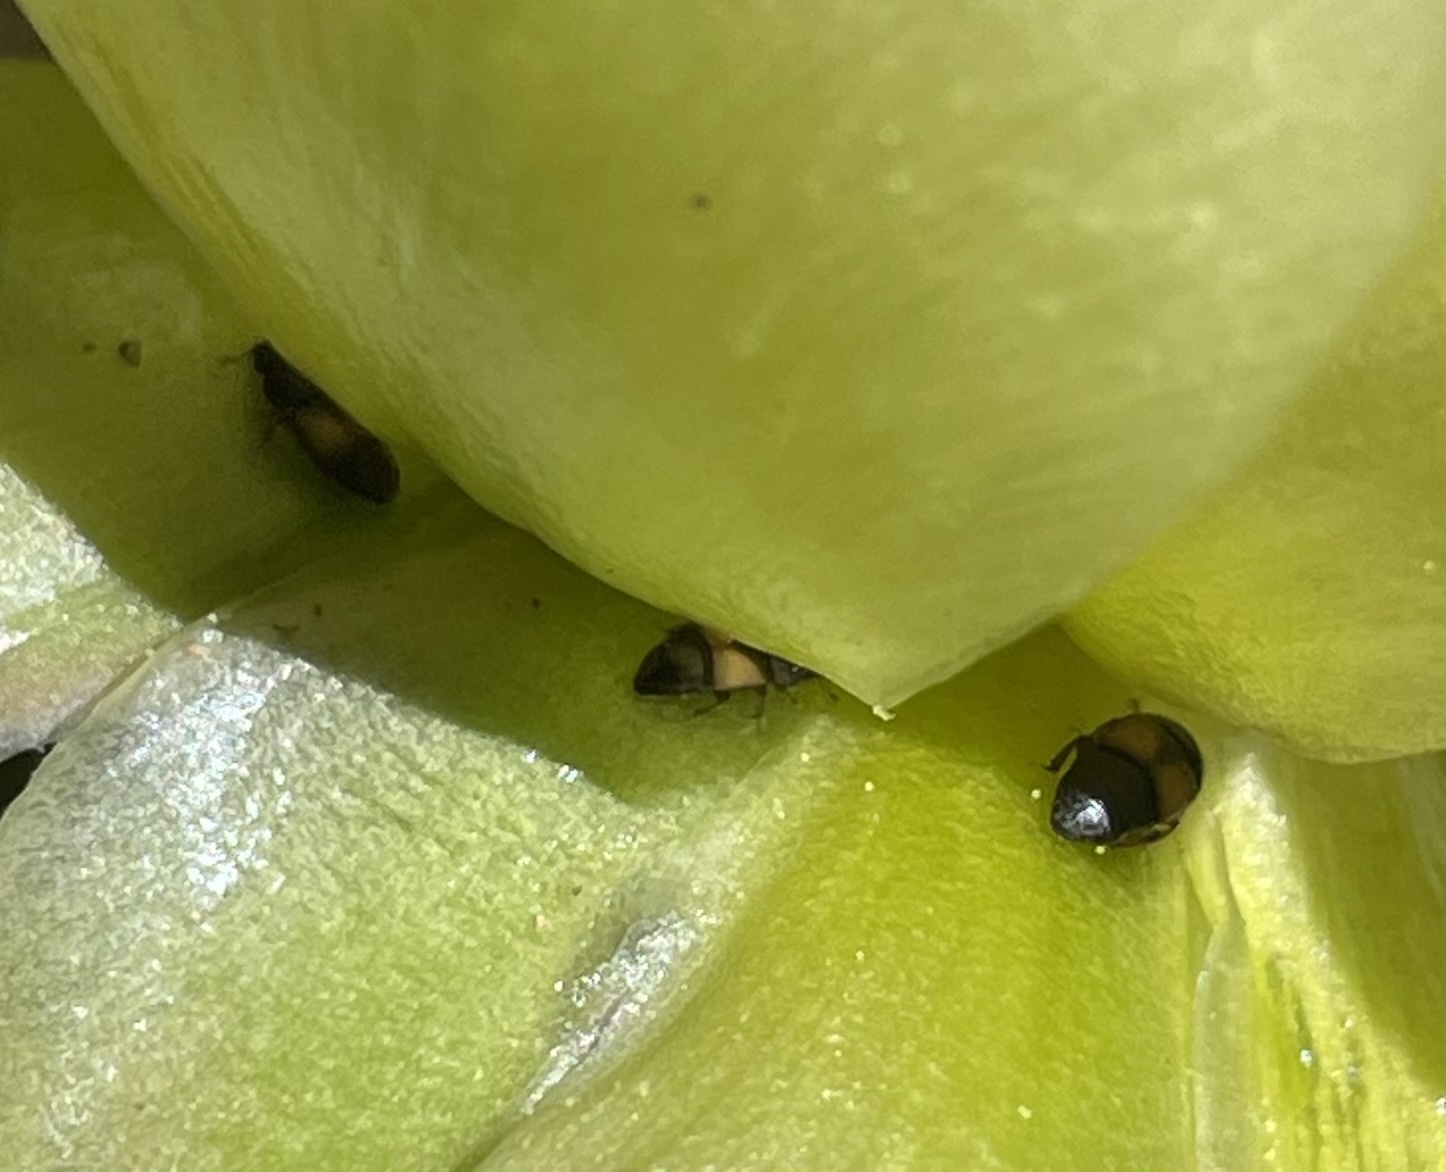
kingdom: Animalia
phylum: Arthropoda
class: Insecta
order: Coleoptera
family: Nitidulidae
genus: Nitops
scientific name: Nitops pallipennis
